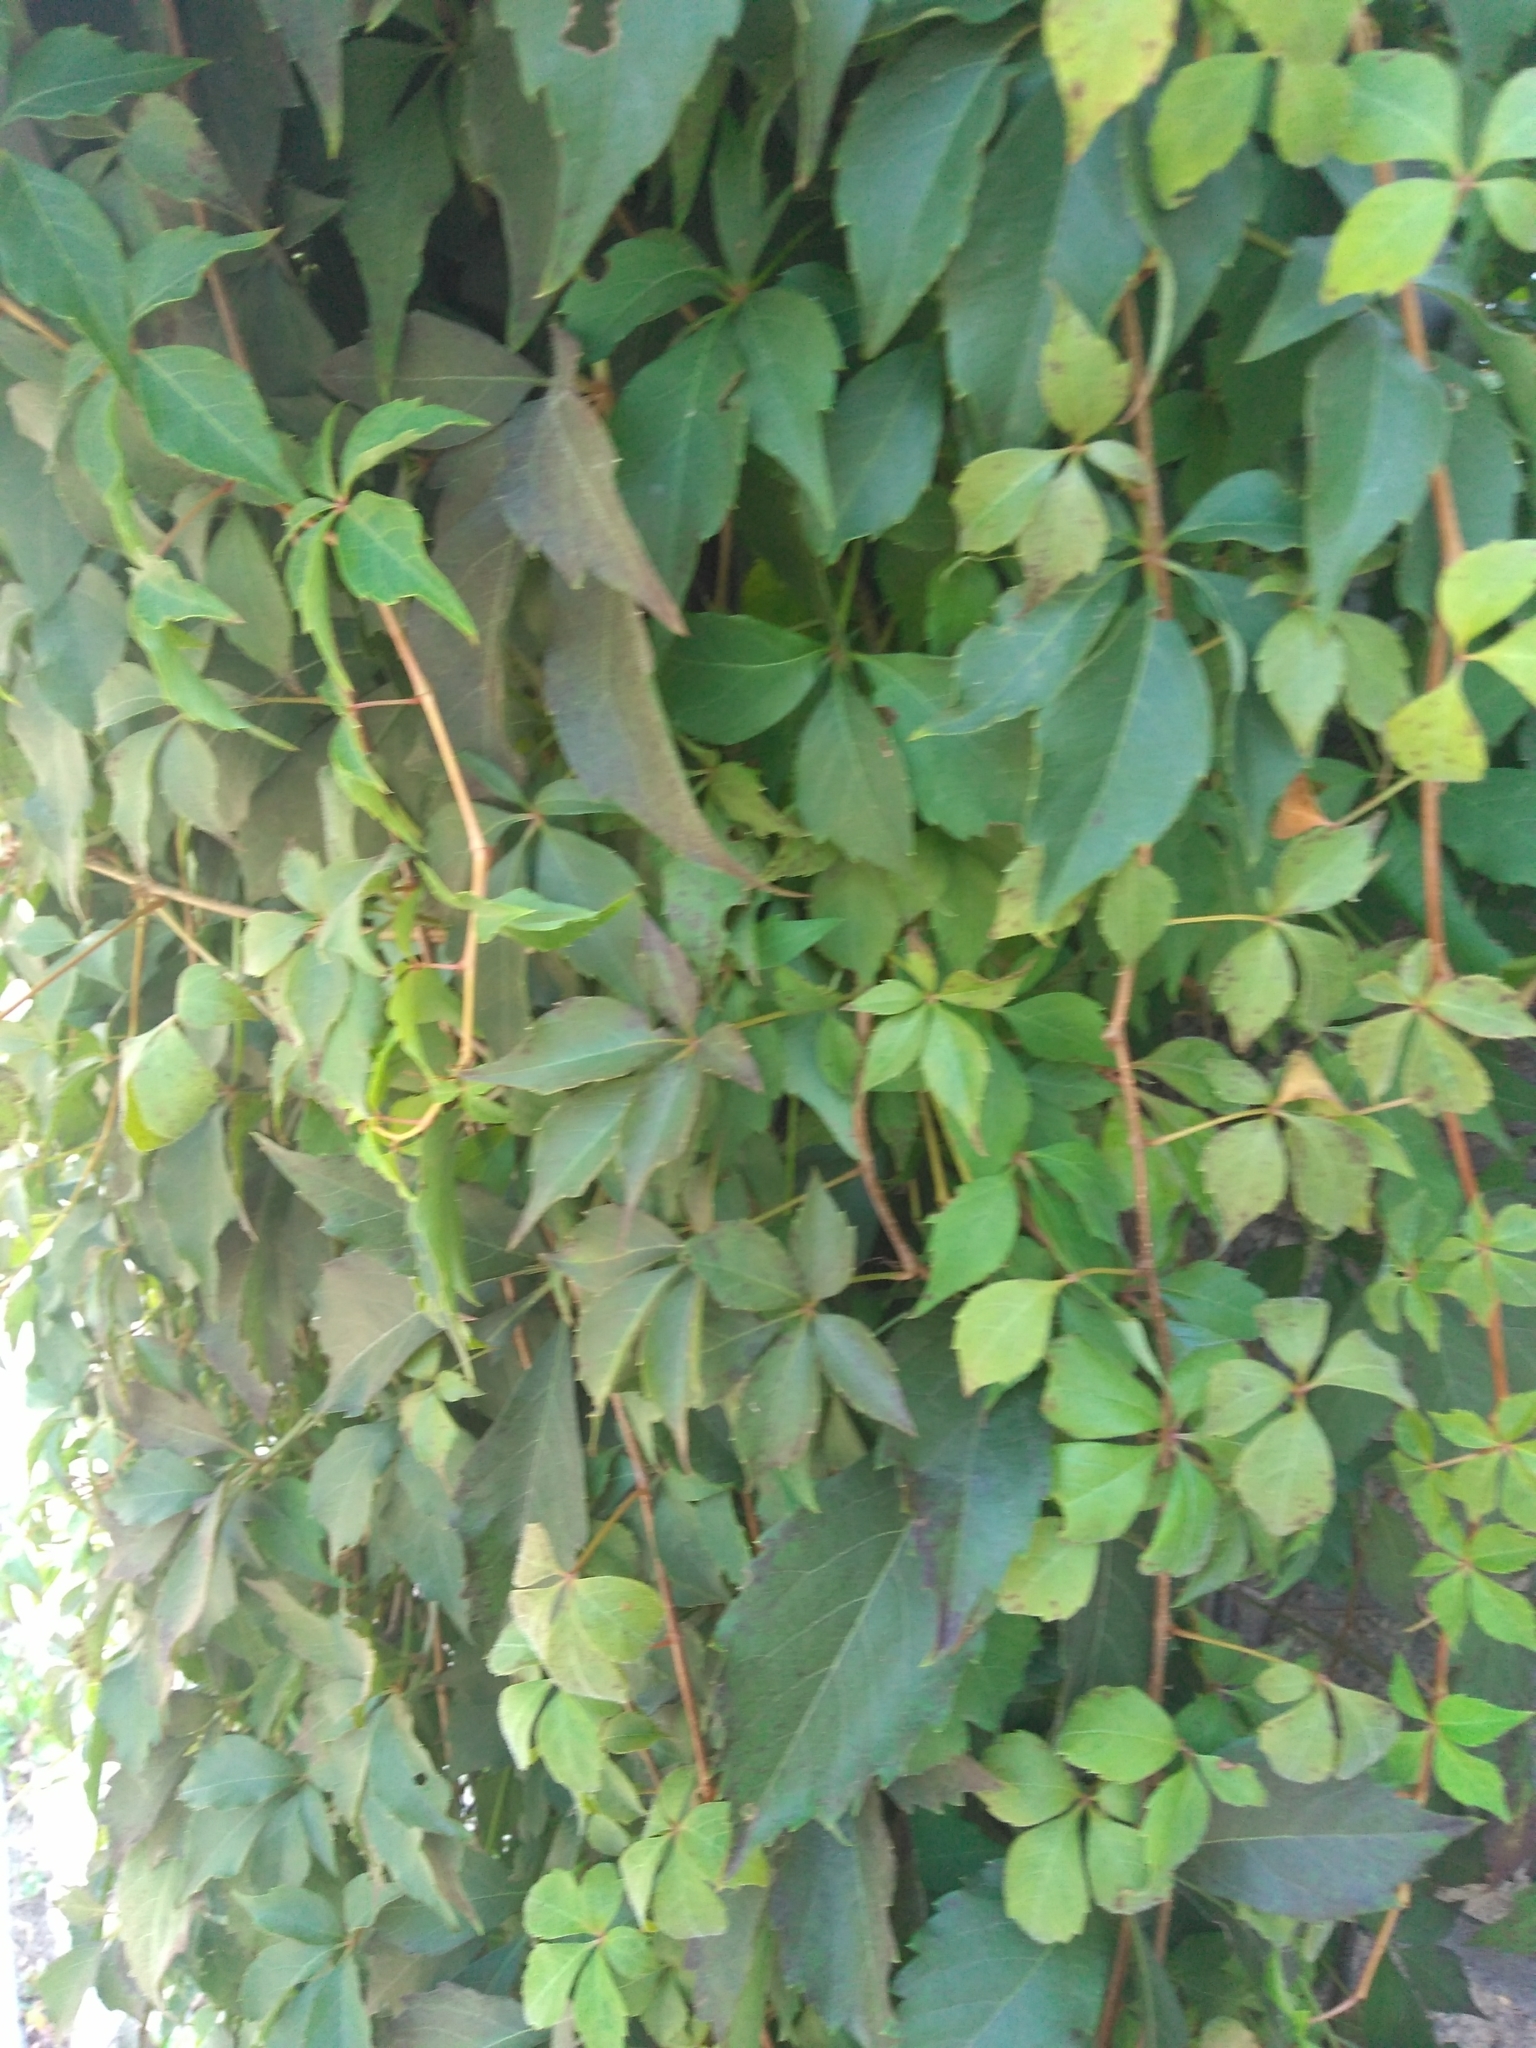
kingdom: Plantae
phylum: Tracheophyta
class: Magnoliopsida
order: Vitales
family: Vitaceae
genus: Parthenocissus
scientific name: Parthenocissus quinquefolia
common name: Virginia-creeper
